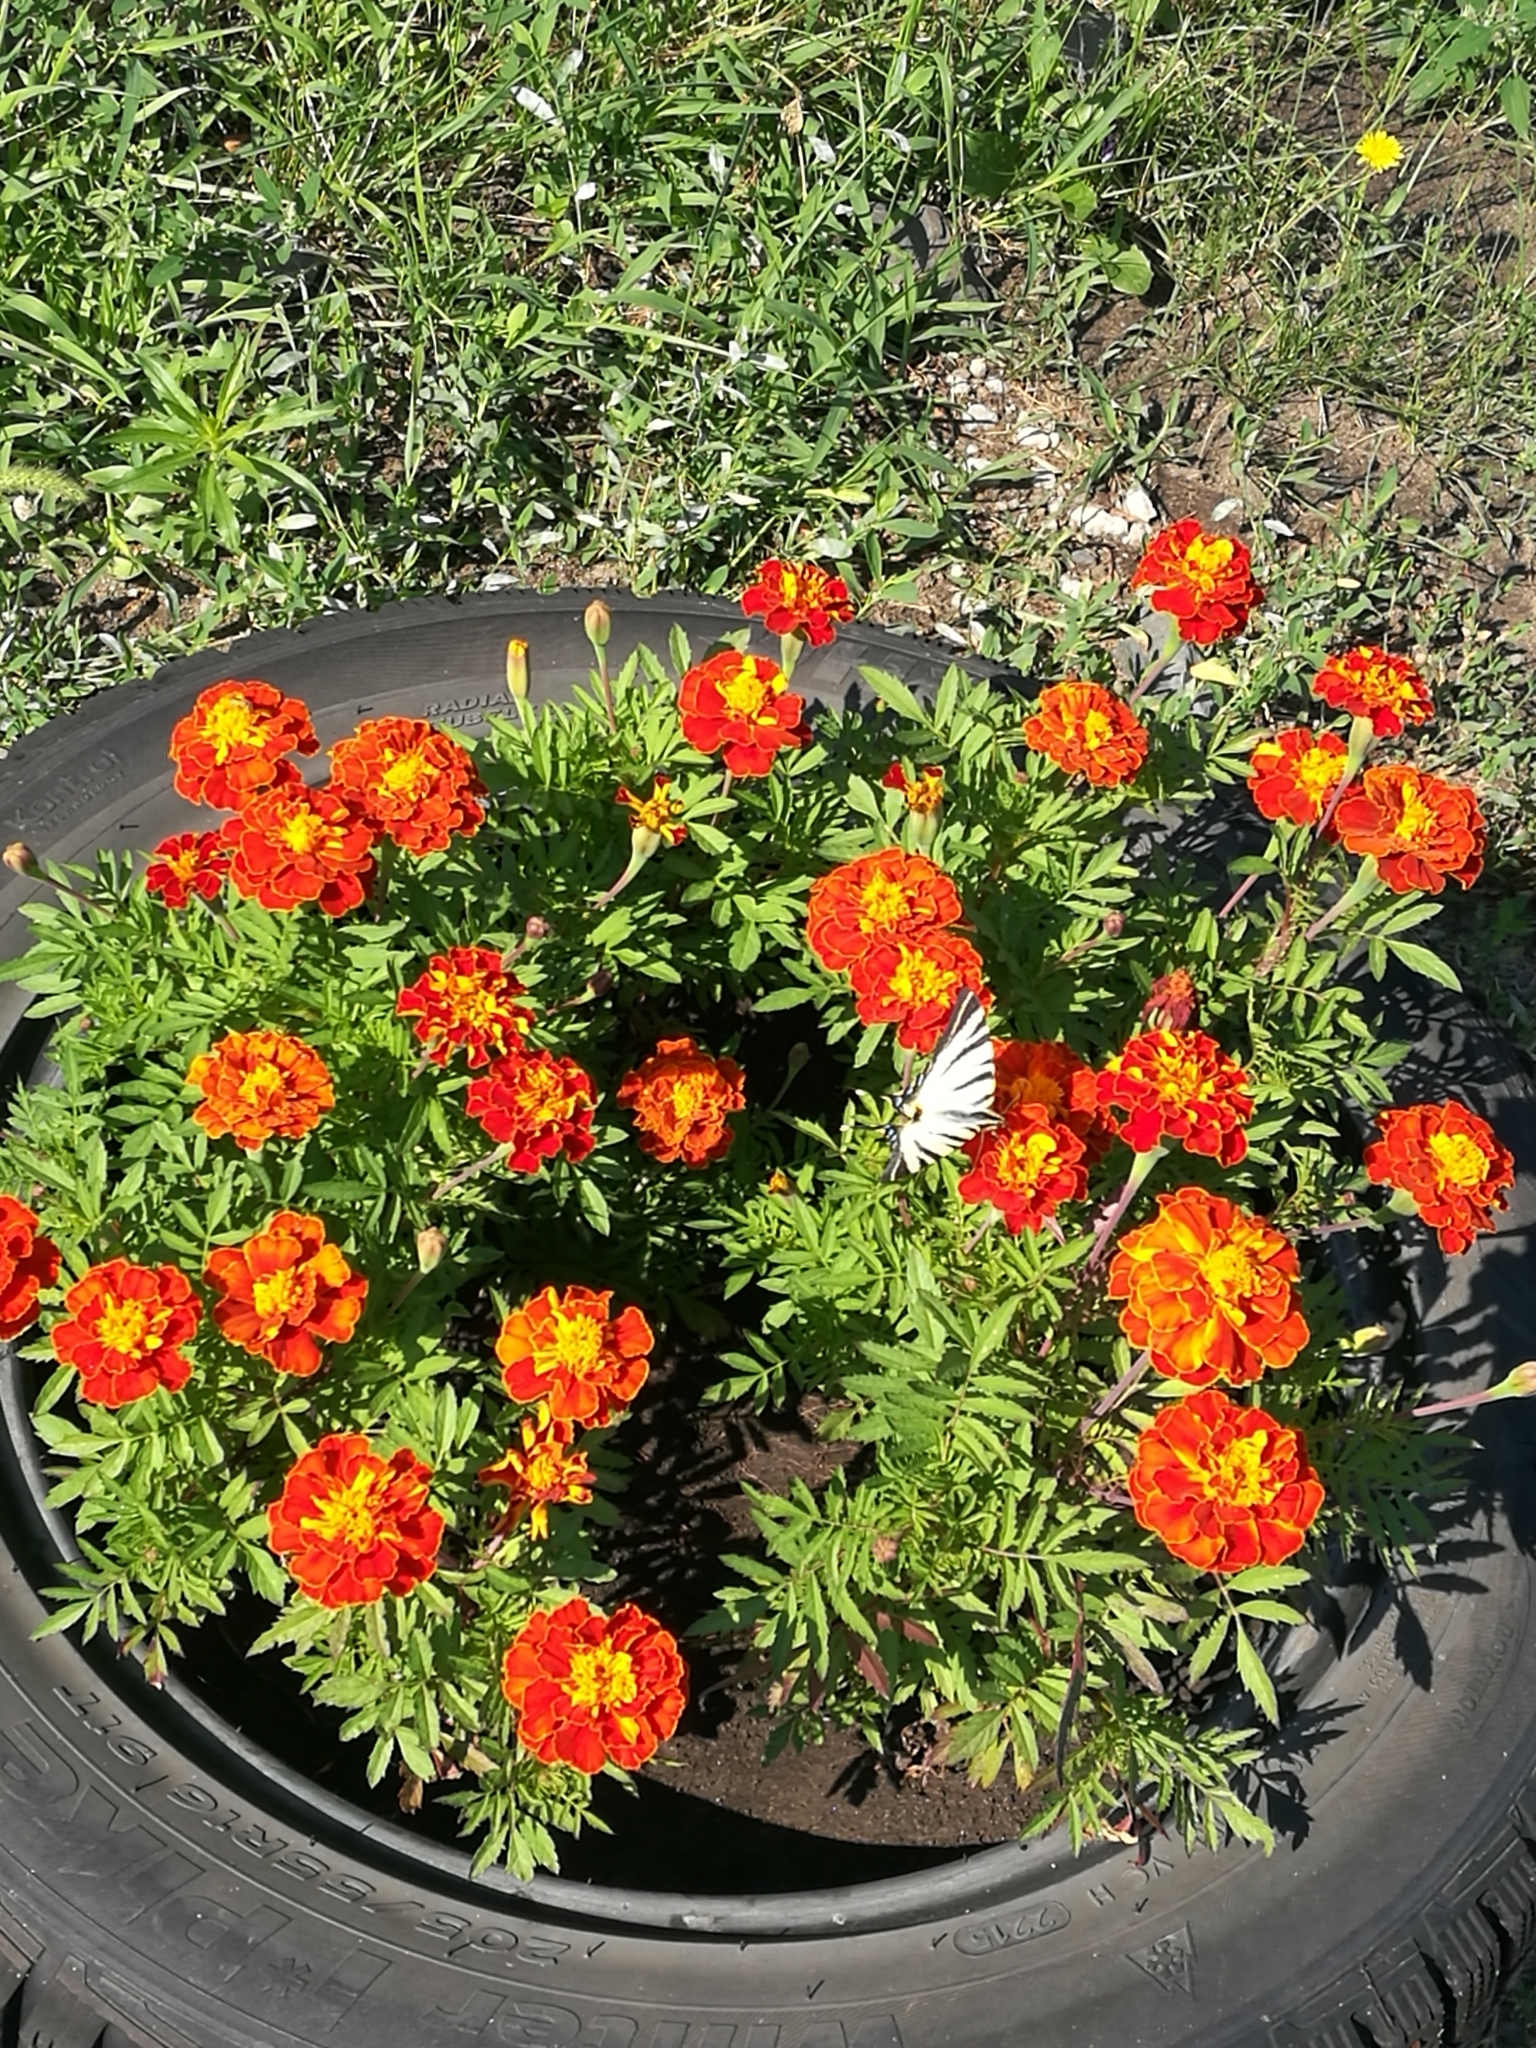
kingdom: Animalia
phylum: Arthropoda
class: Insecta
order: Lepidoptera
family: Papilionidae
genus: Iphiclides
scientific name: Iphiclides podalirius
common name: Scarce swallowtail
